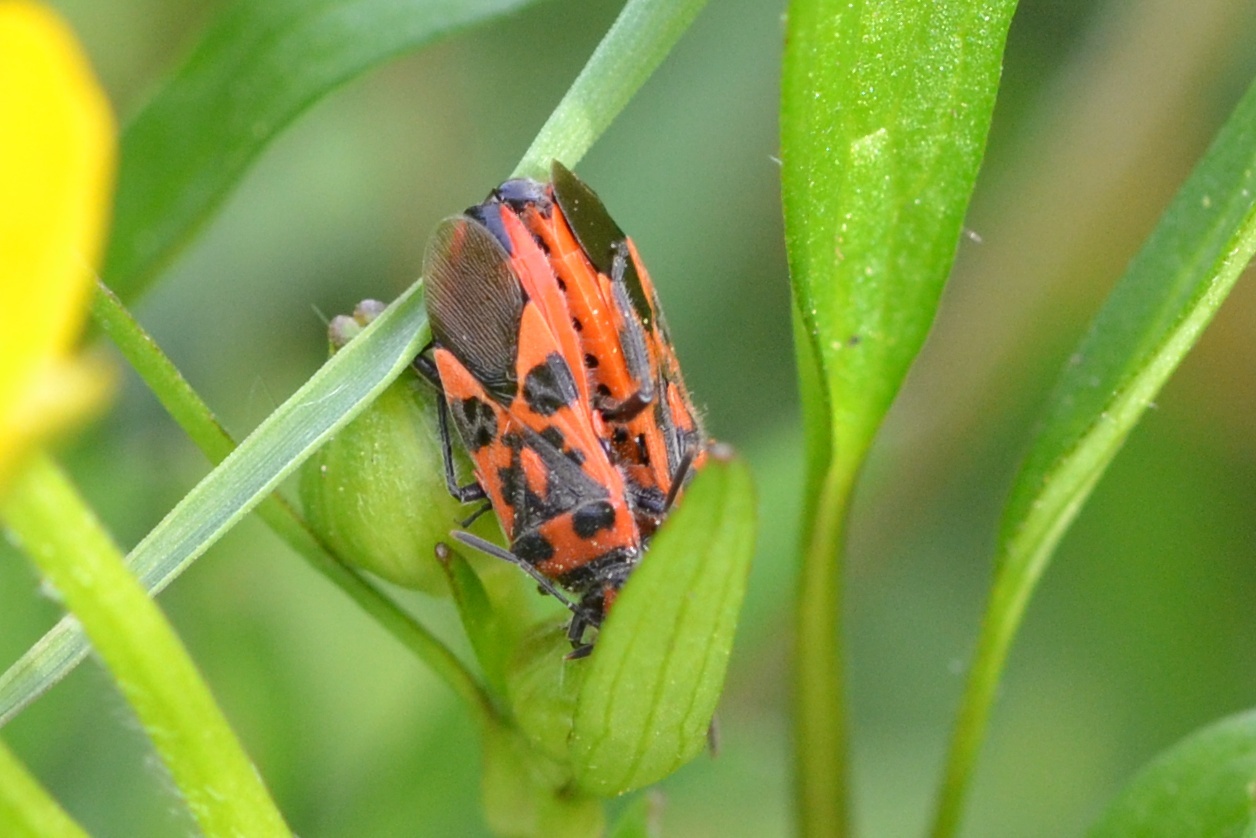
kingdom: Animalia
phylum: Arthropoda
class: Insecta
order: Hemiptera
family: Rhopalidae
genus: Corizus
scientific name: Corizus hyoscyami
